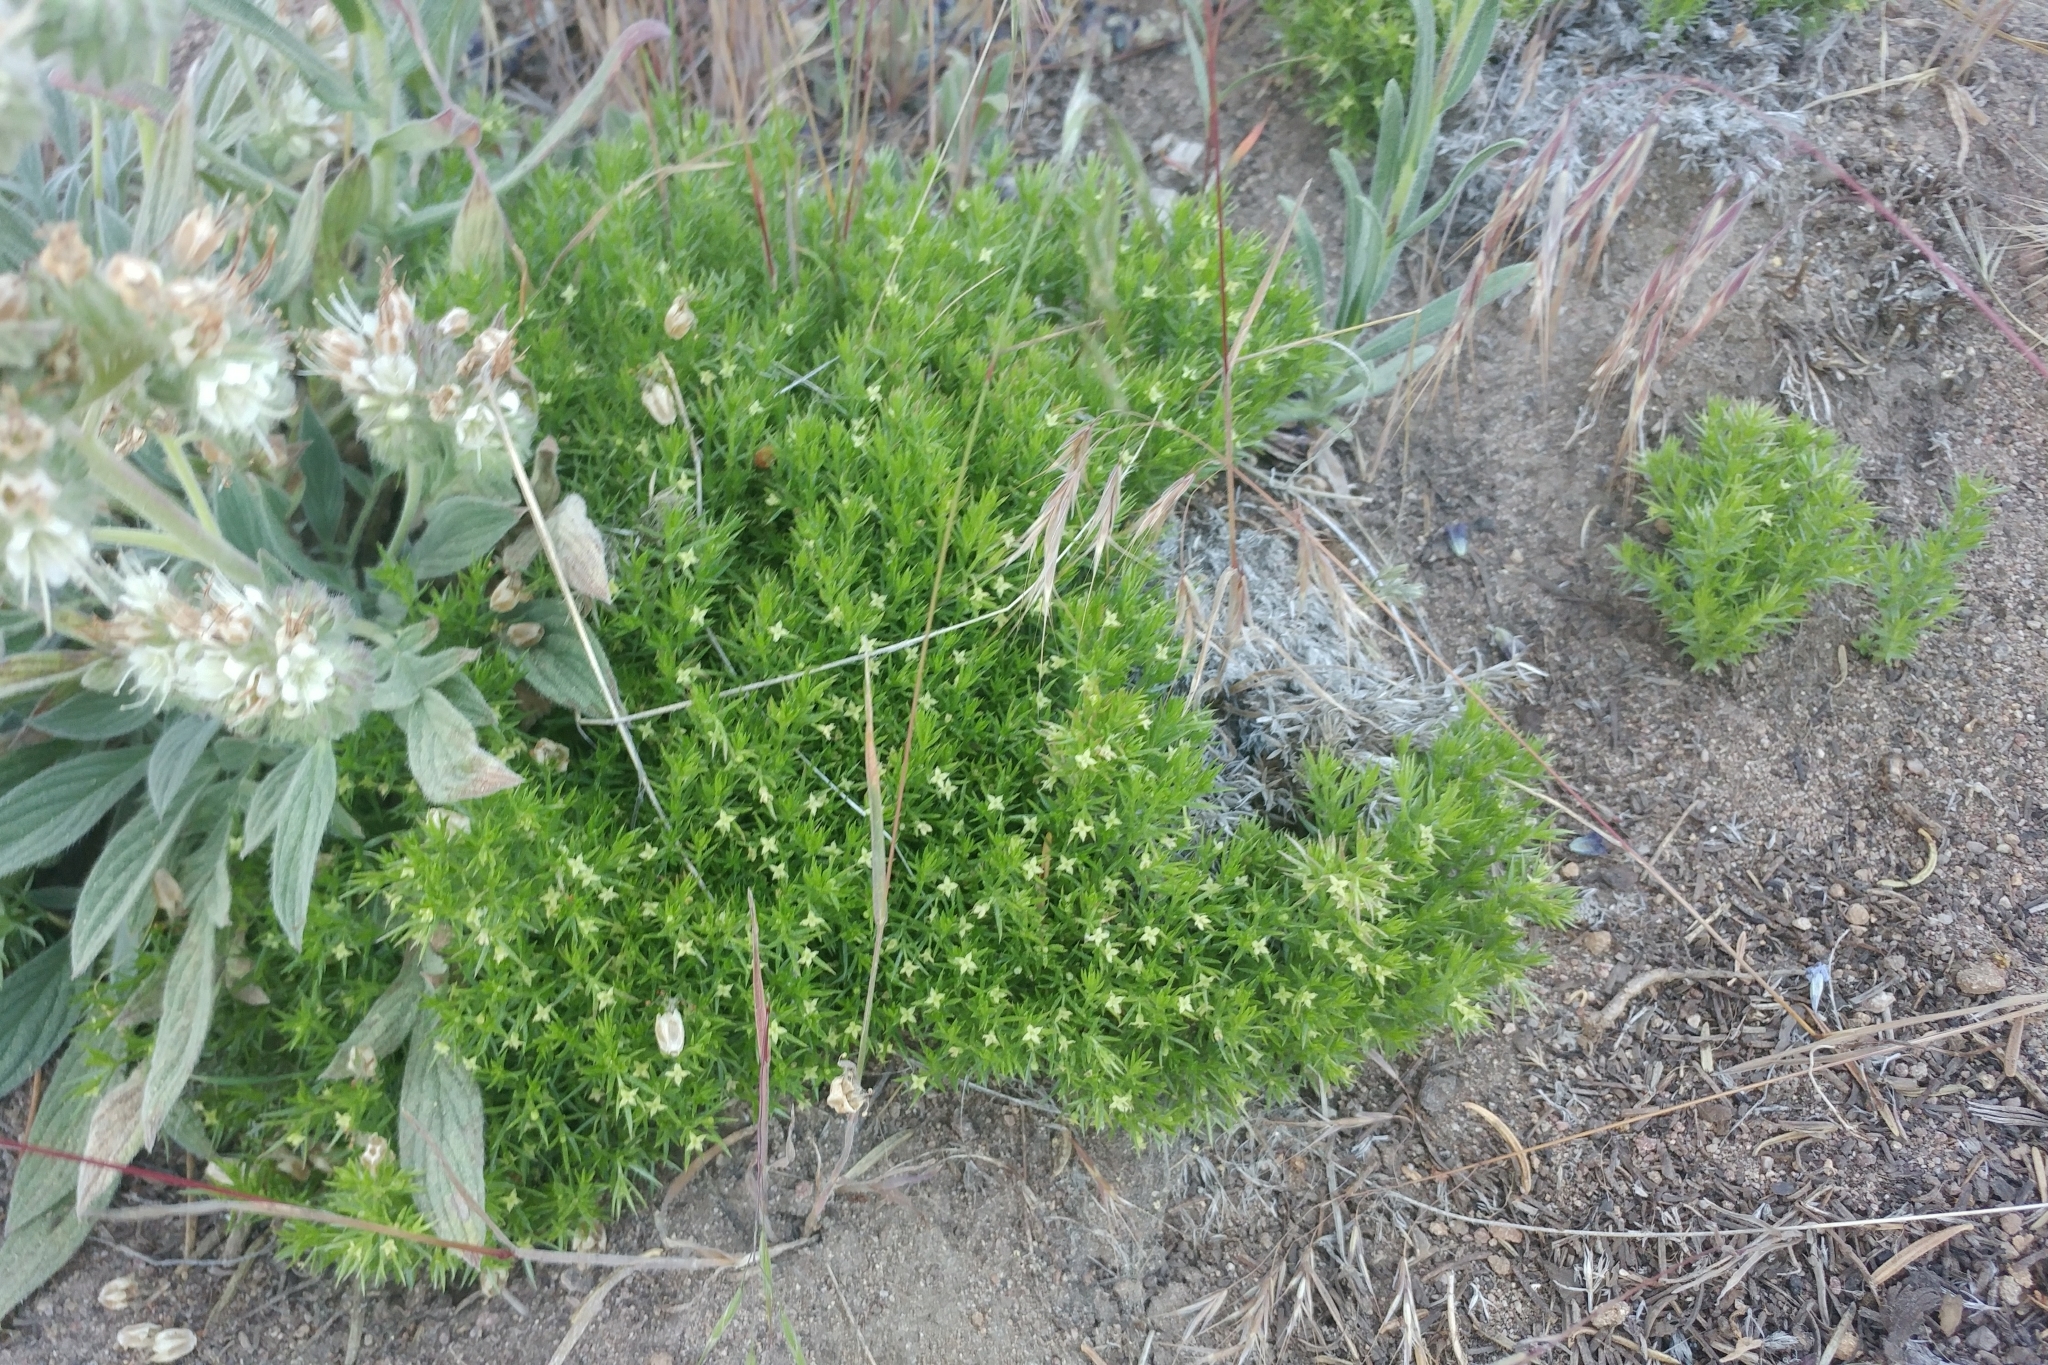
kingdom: Plantae
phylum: Tracheophyta
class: Magnoliopsida
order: Gentianales
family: Rubiaceae
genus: Galium
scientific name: Galium andrewsii
